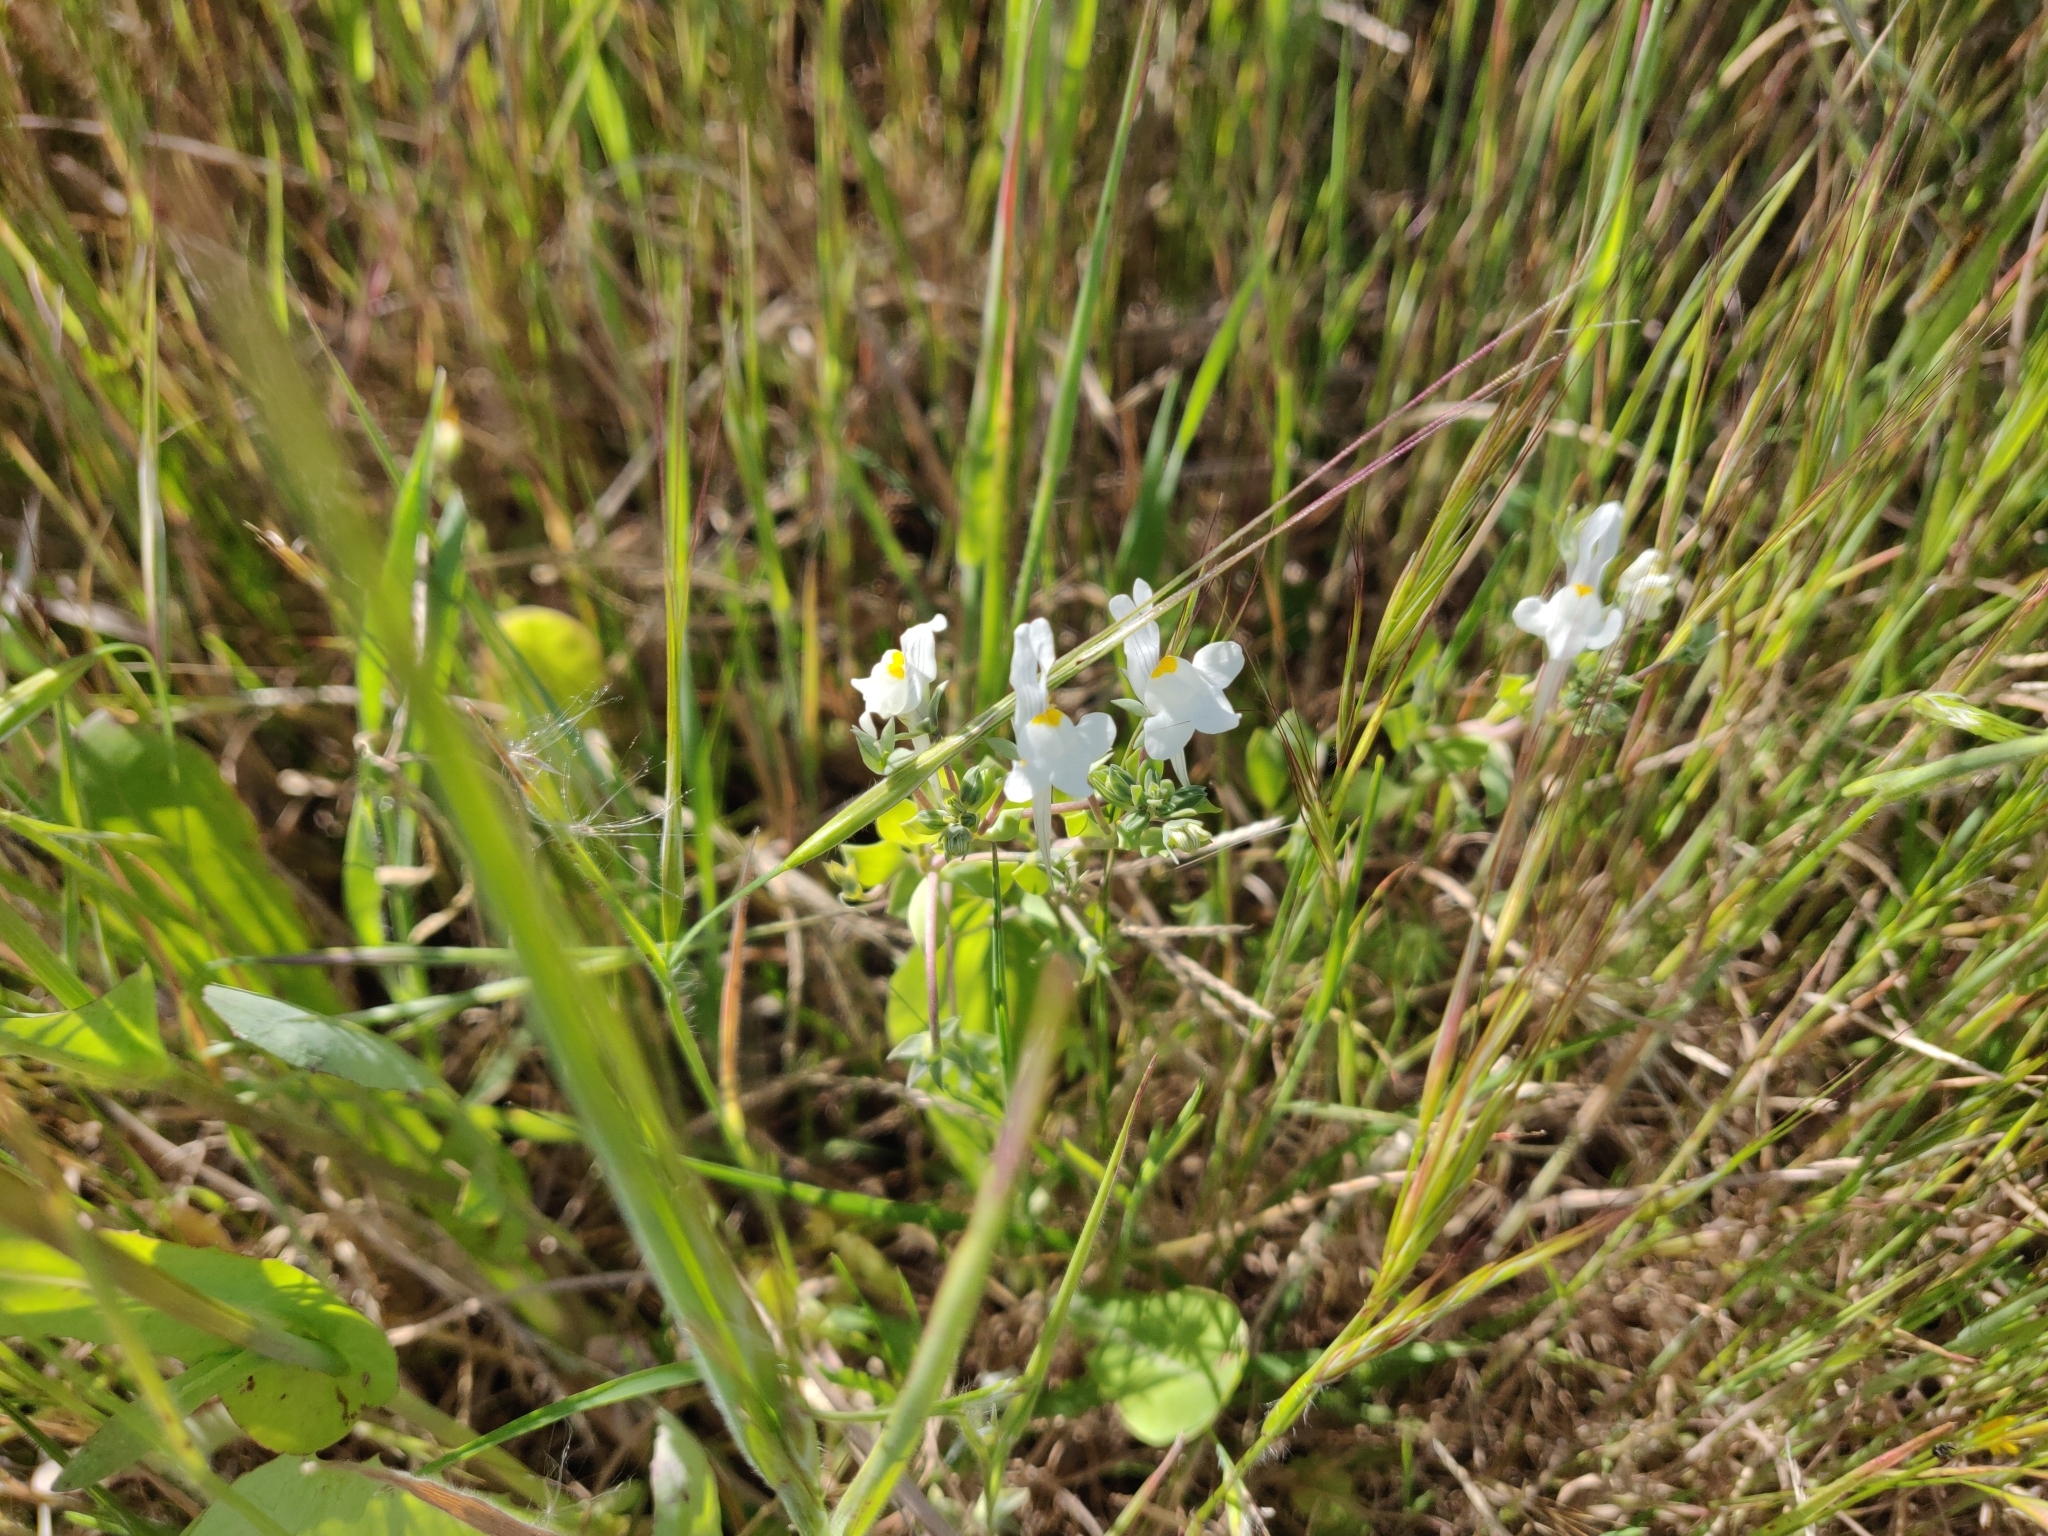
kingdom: Plantae
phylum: Tracheophyta
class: Magnoliopsida
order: Lamiales
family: Plantaginaceae
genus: Linaria
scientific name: Linaria reflexa
